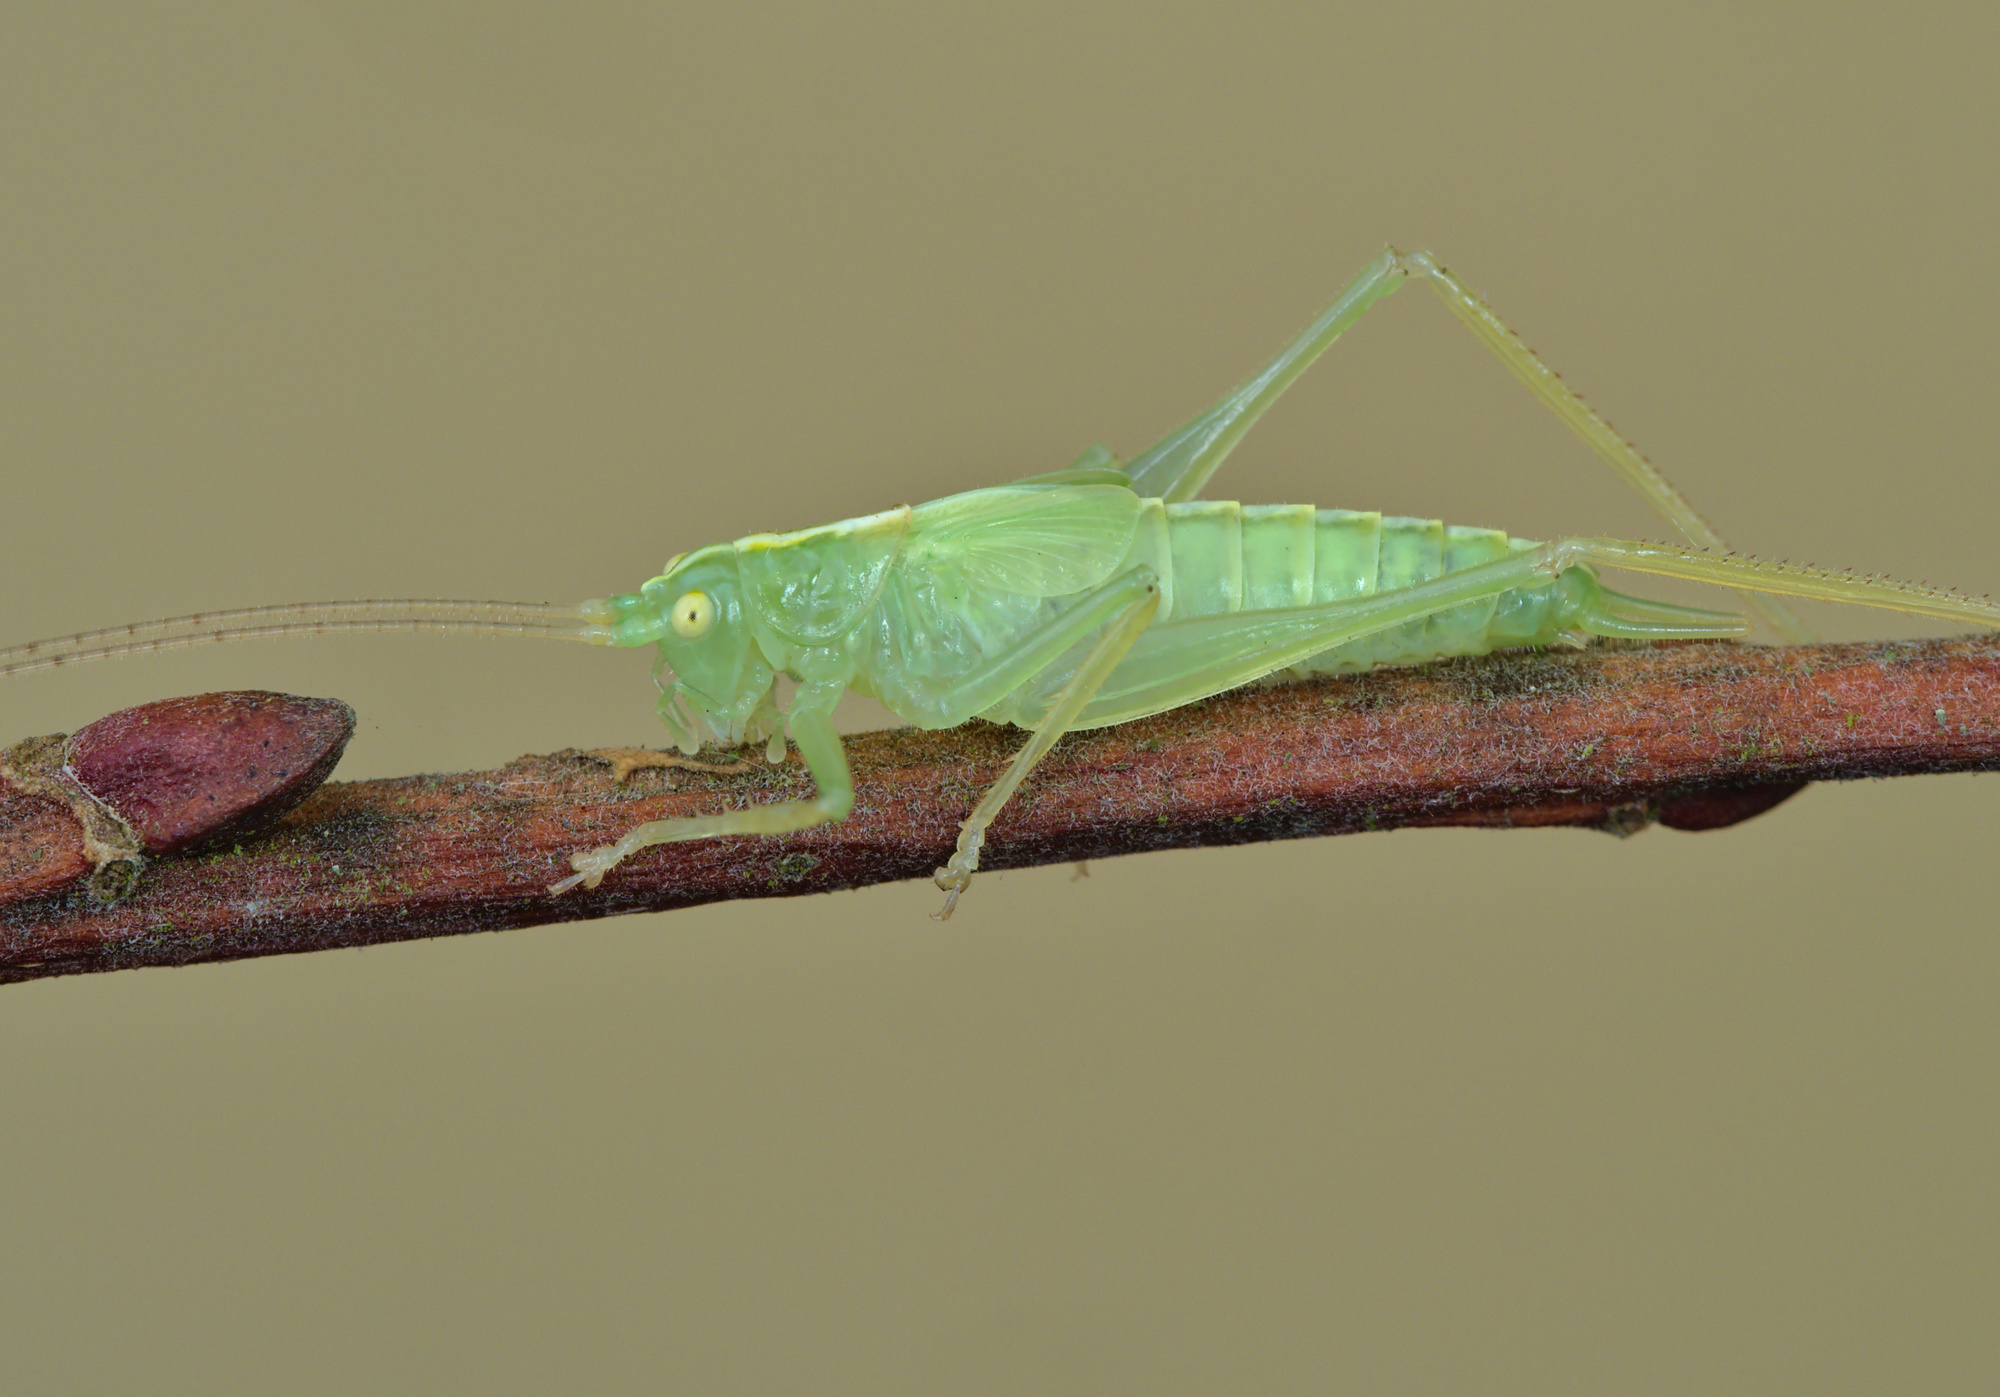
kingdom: Animalia
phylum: Arthropoda
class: Insecta
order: Orthoptera
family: Tettigoniidae
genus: Meconema
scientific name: Meconema thalassinum
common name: Oak bush-cricket
